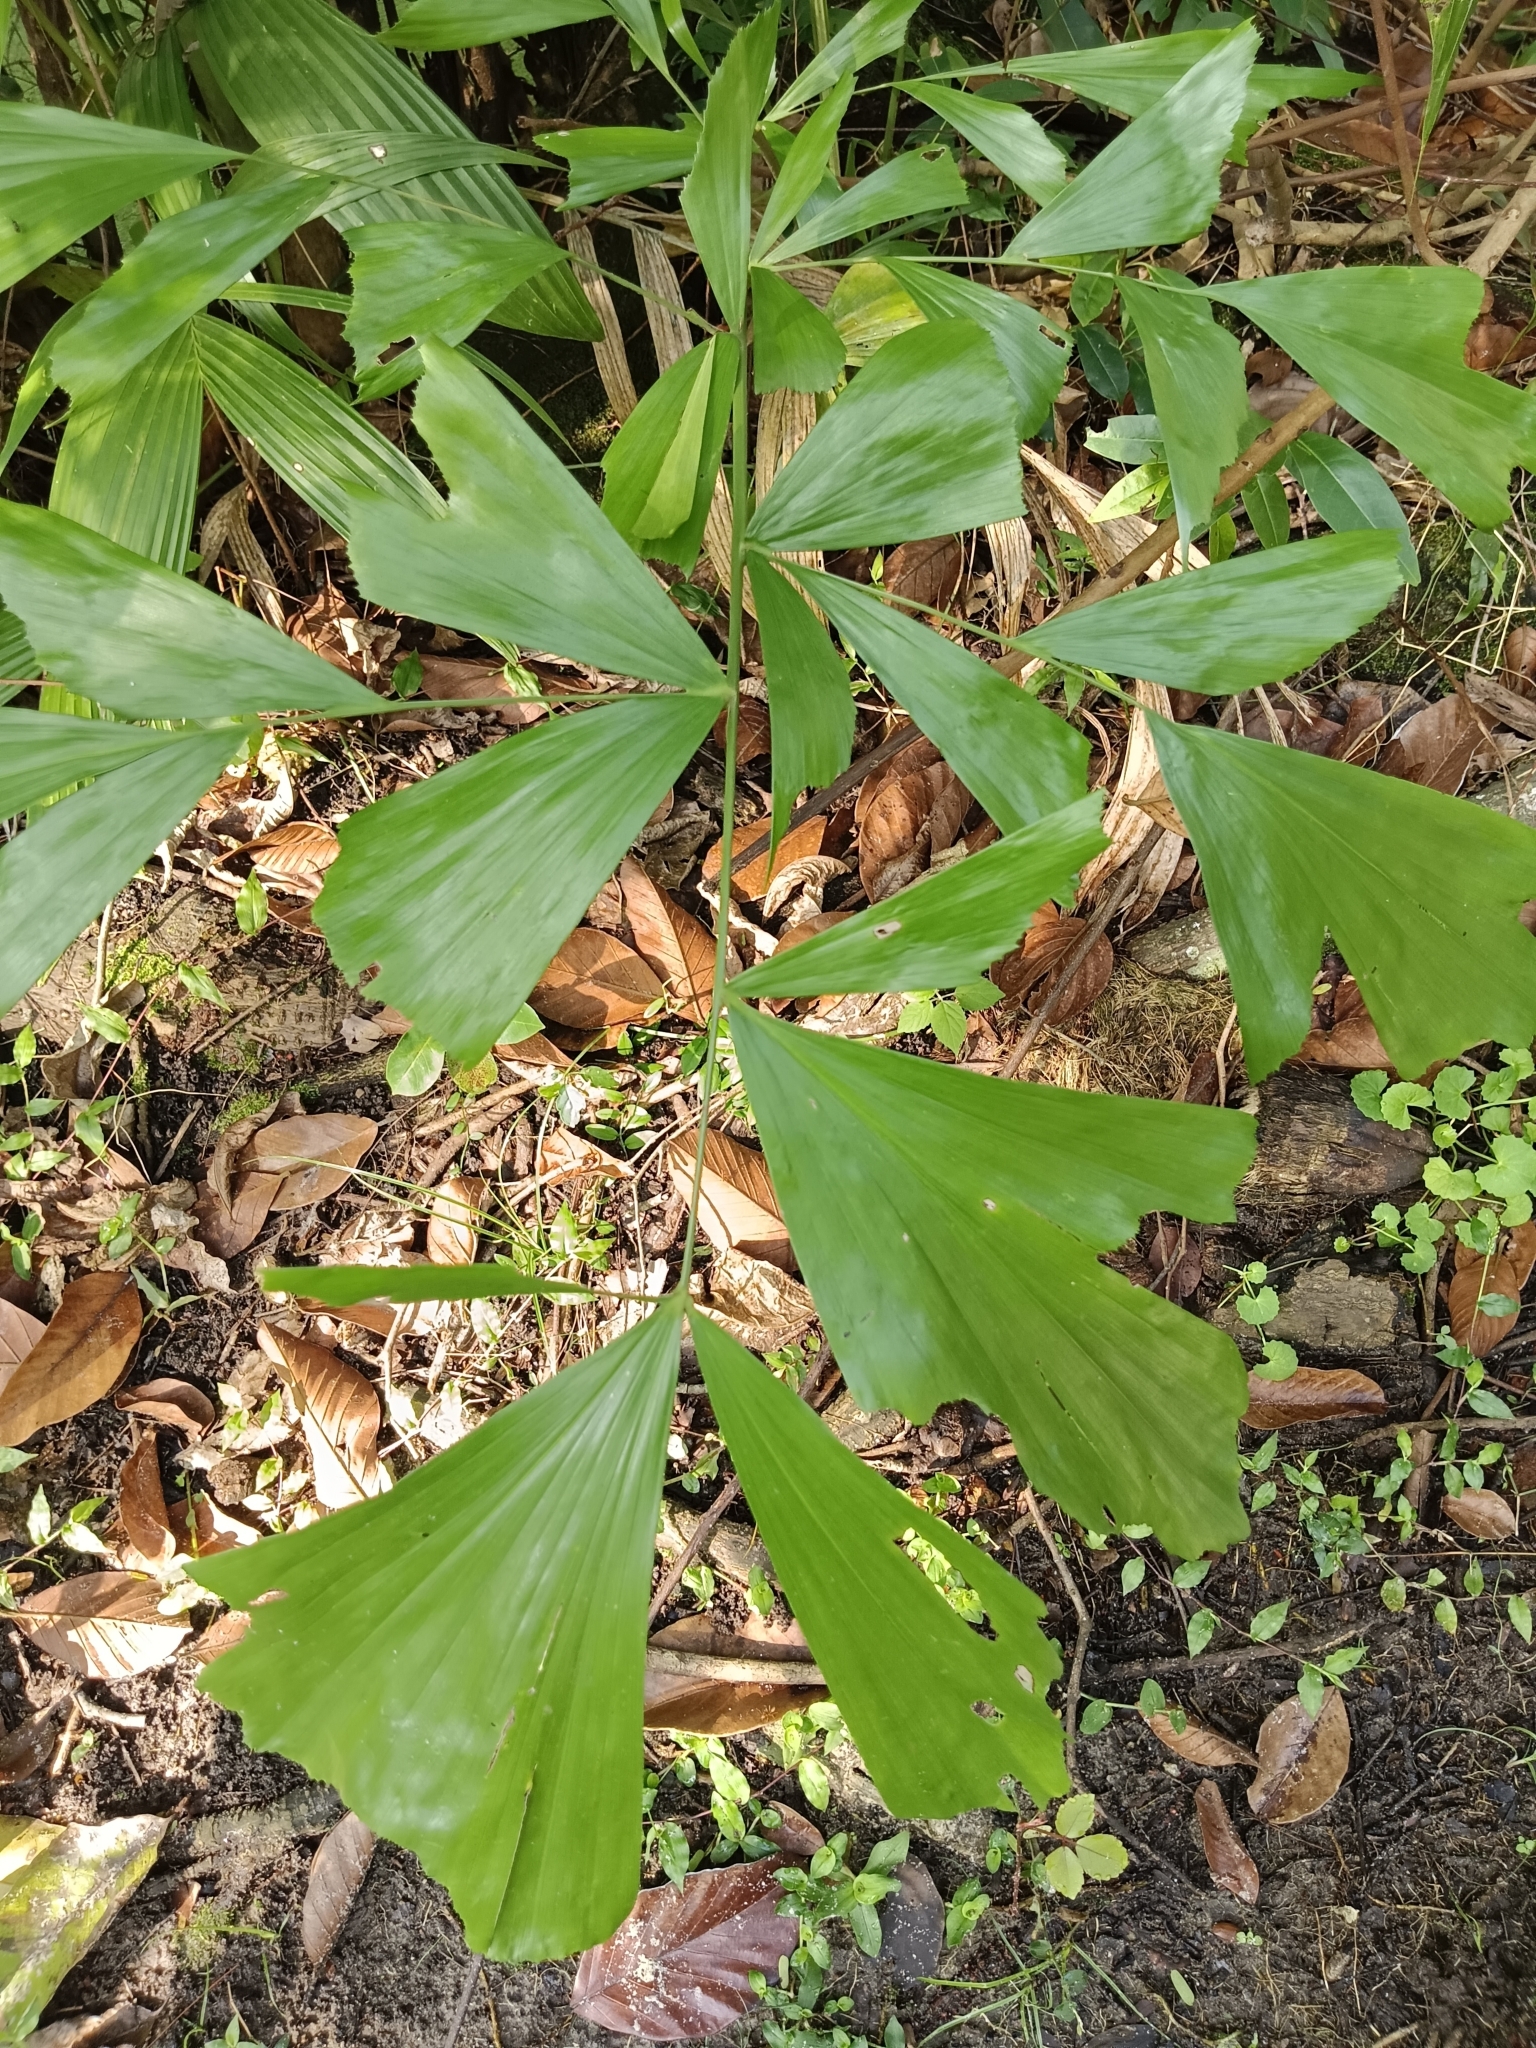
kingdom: Plantae
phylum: Tracheophyta
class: Liliopsida
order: Arecales
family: Arecaceae
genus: Caryota
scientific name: Caryota urens
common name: Jaggery palm
